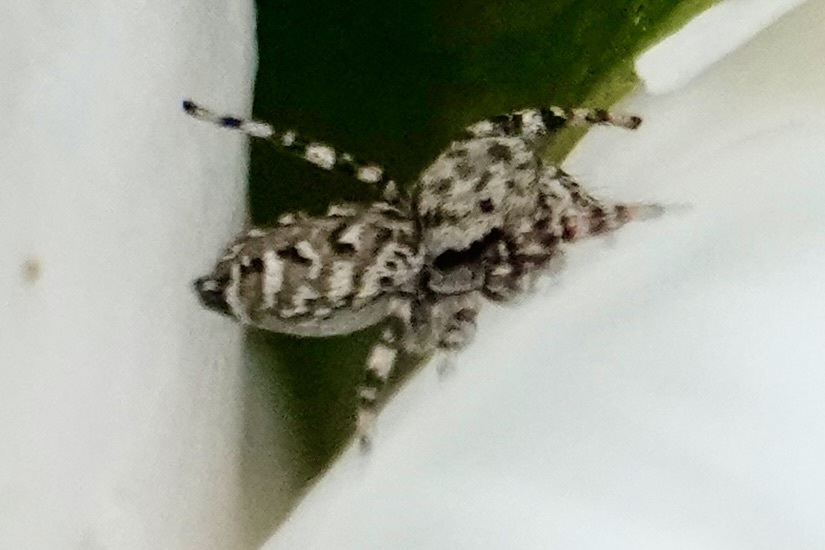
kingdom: Animalia
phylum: Arthropoda
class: Arachnida
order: Araneae
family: Salticidae
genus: Pelegrina
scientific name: Pelegrina galathea
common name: Jumping spiders
